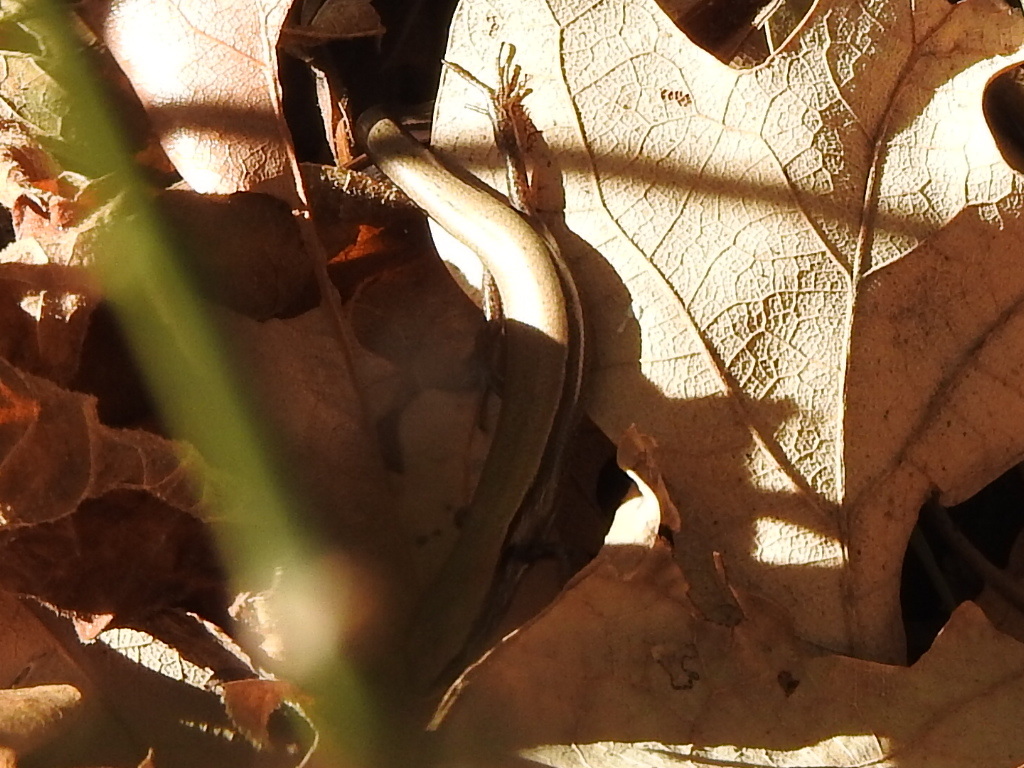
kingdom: Animalia
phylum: Chordata
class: Squamata
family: Scincidae
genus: Scincella
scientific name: Scincella lateralis
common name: Ground skink
